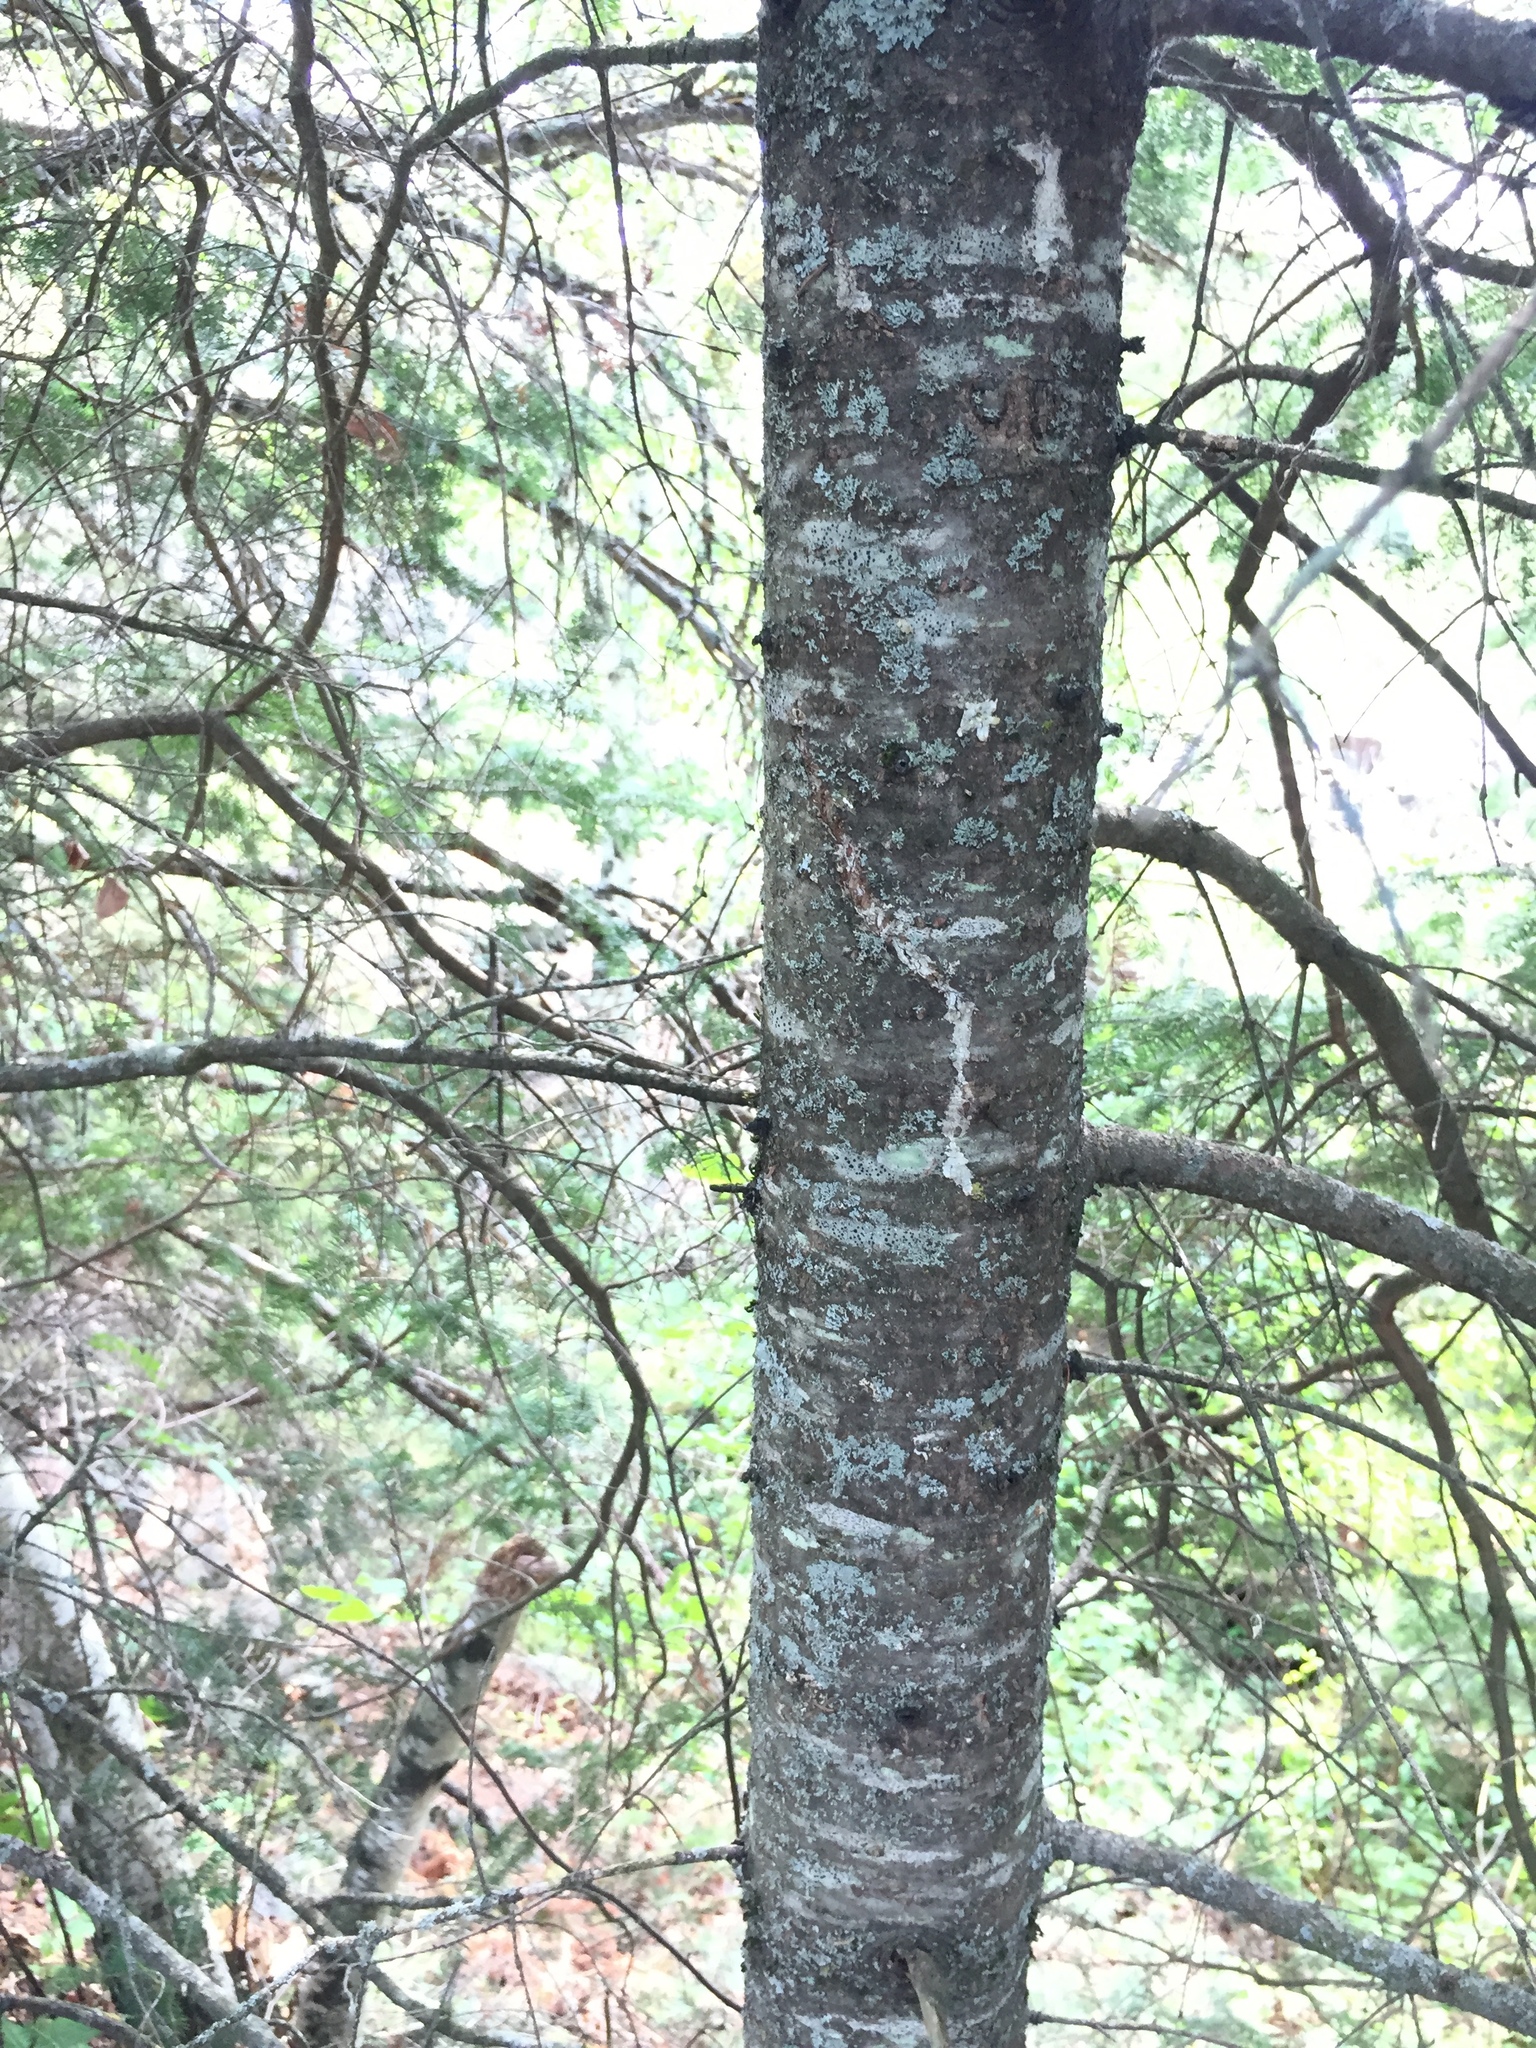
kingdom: Plantae
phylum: Tracheophyta
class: Pinopsida
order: Pinales
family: Pinaceae
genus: Abies
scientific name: Abies balsamea
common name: Balsam fir
